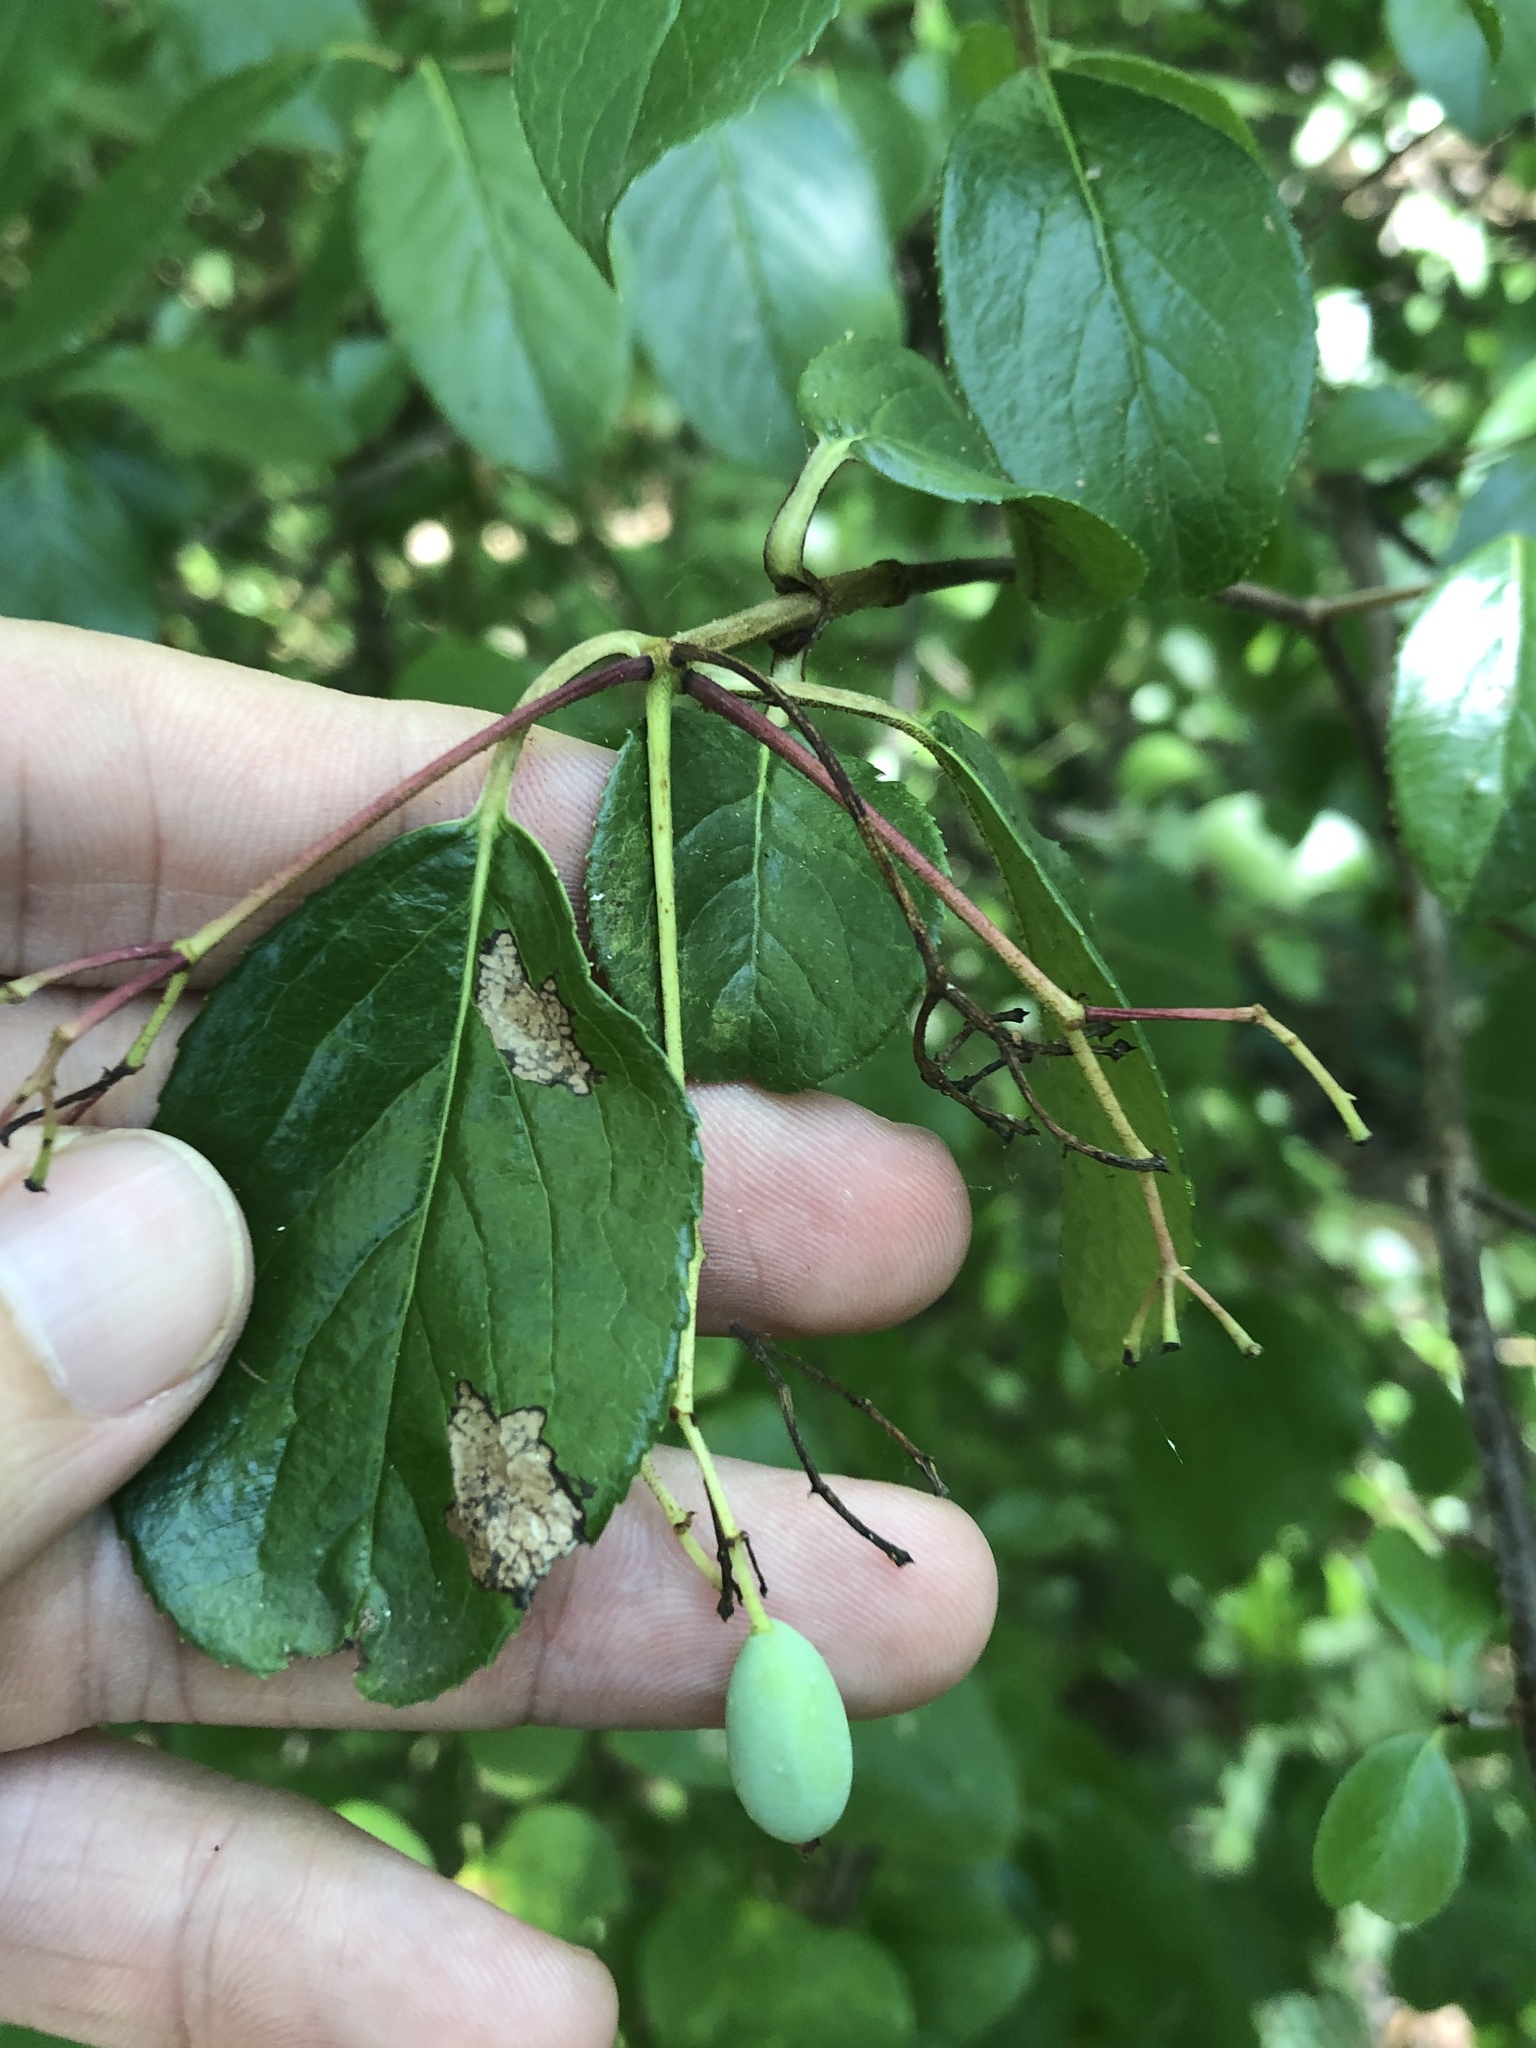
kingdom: Plantae
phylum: Tracheophyta
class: Magnoliopsida
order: Dipsacales
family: Viburnaceae
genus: Viburnum
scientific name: Viburnum rufidulum
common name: Blue haw
